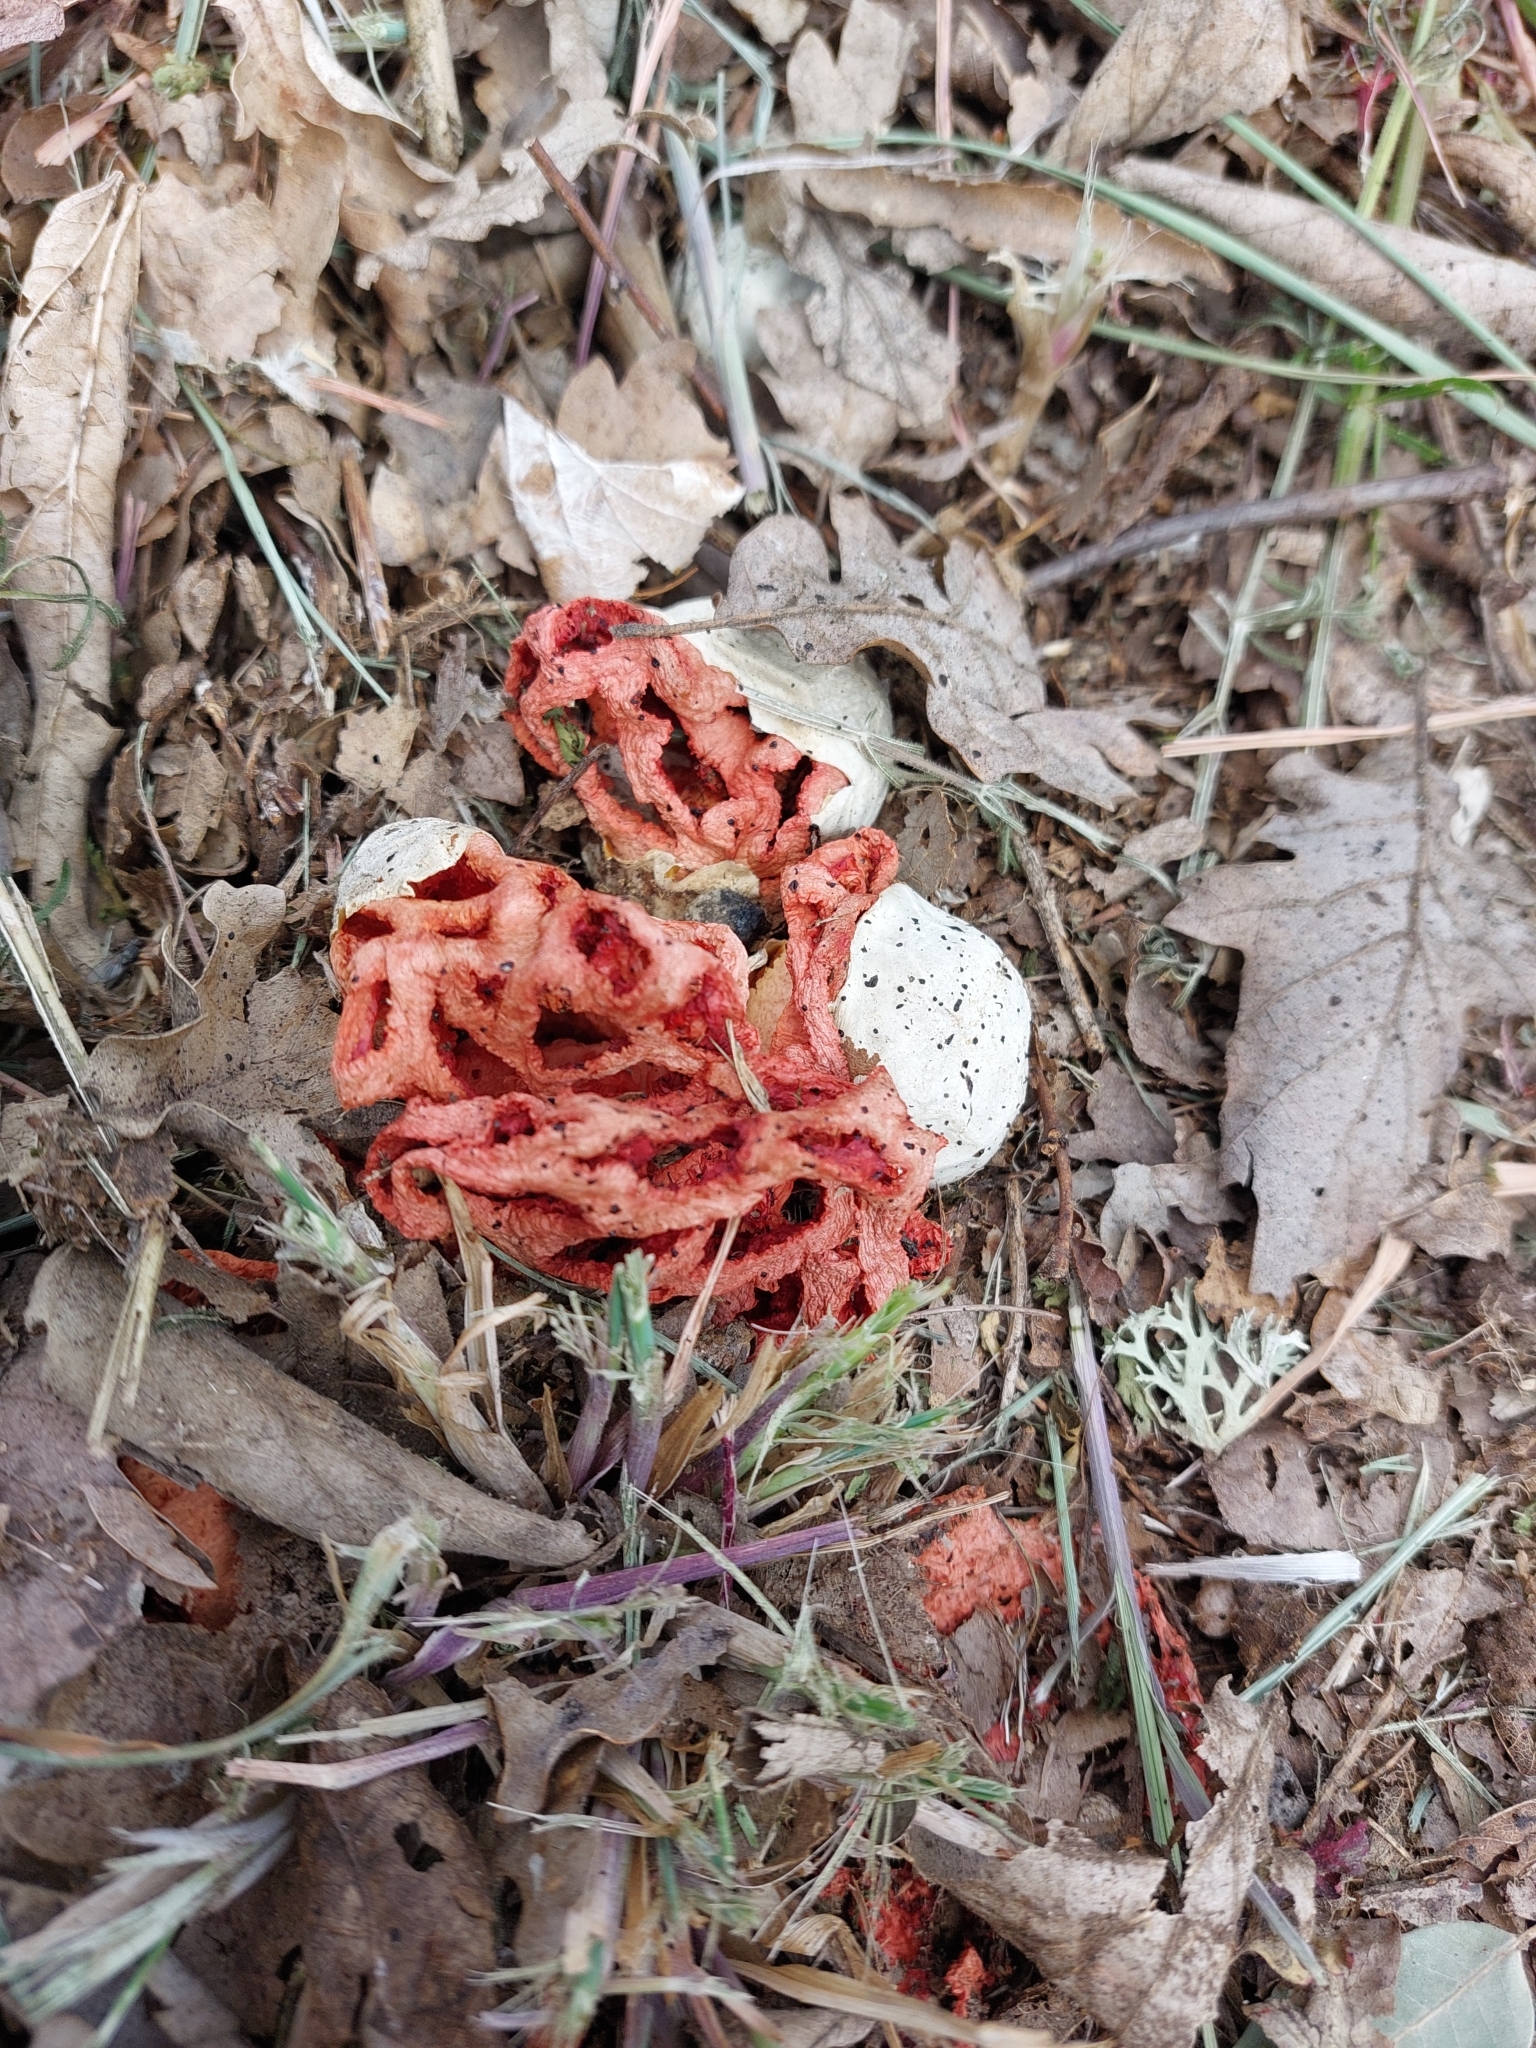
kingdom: Fungi
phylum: Basidiomycota
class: Agaricomycetes
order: Phallales
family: Phallaceae
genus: Clathrus
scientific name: Clathrus ruber
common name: Red cage
